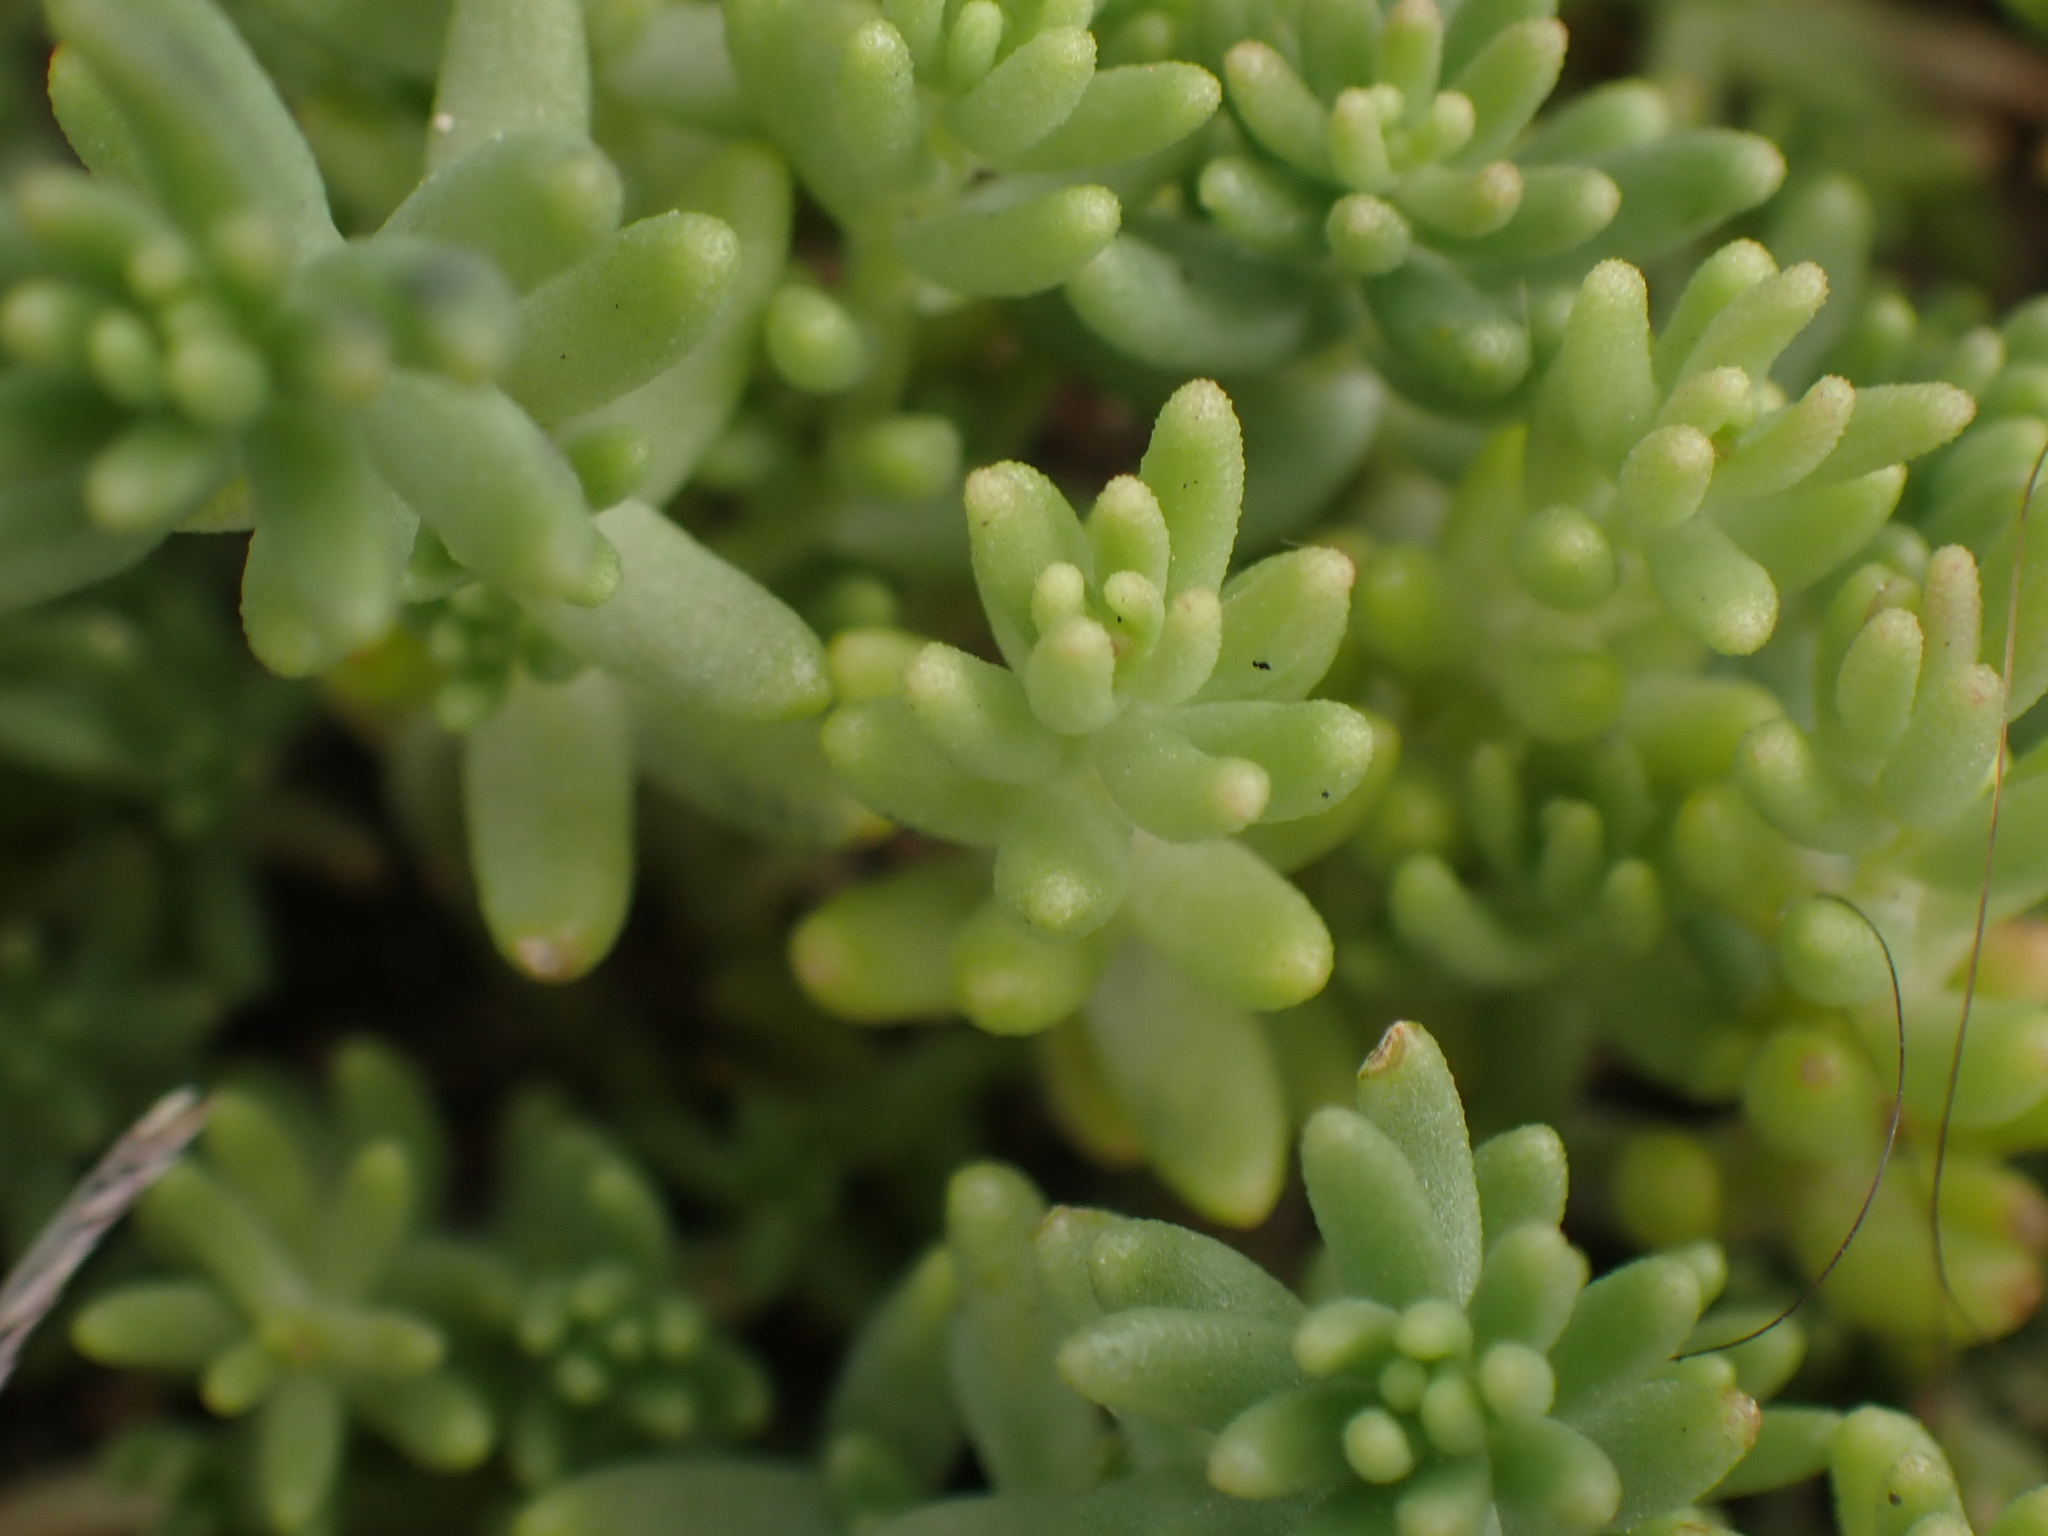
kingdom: Plantae
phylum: Tracheophyta
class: Magnoliopsida
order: Saxifragales
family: Crassulaceae
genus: Sedum
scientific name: Sedum album
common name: White stonecrop
